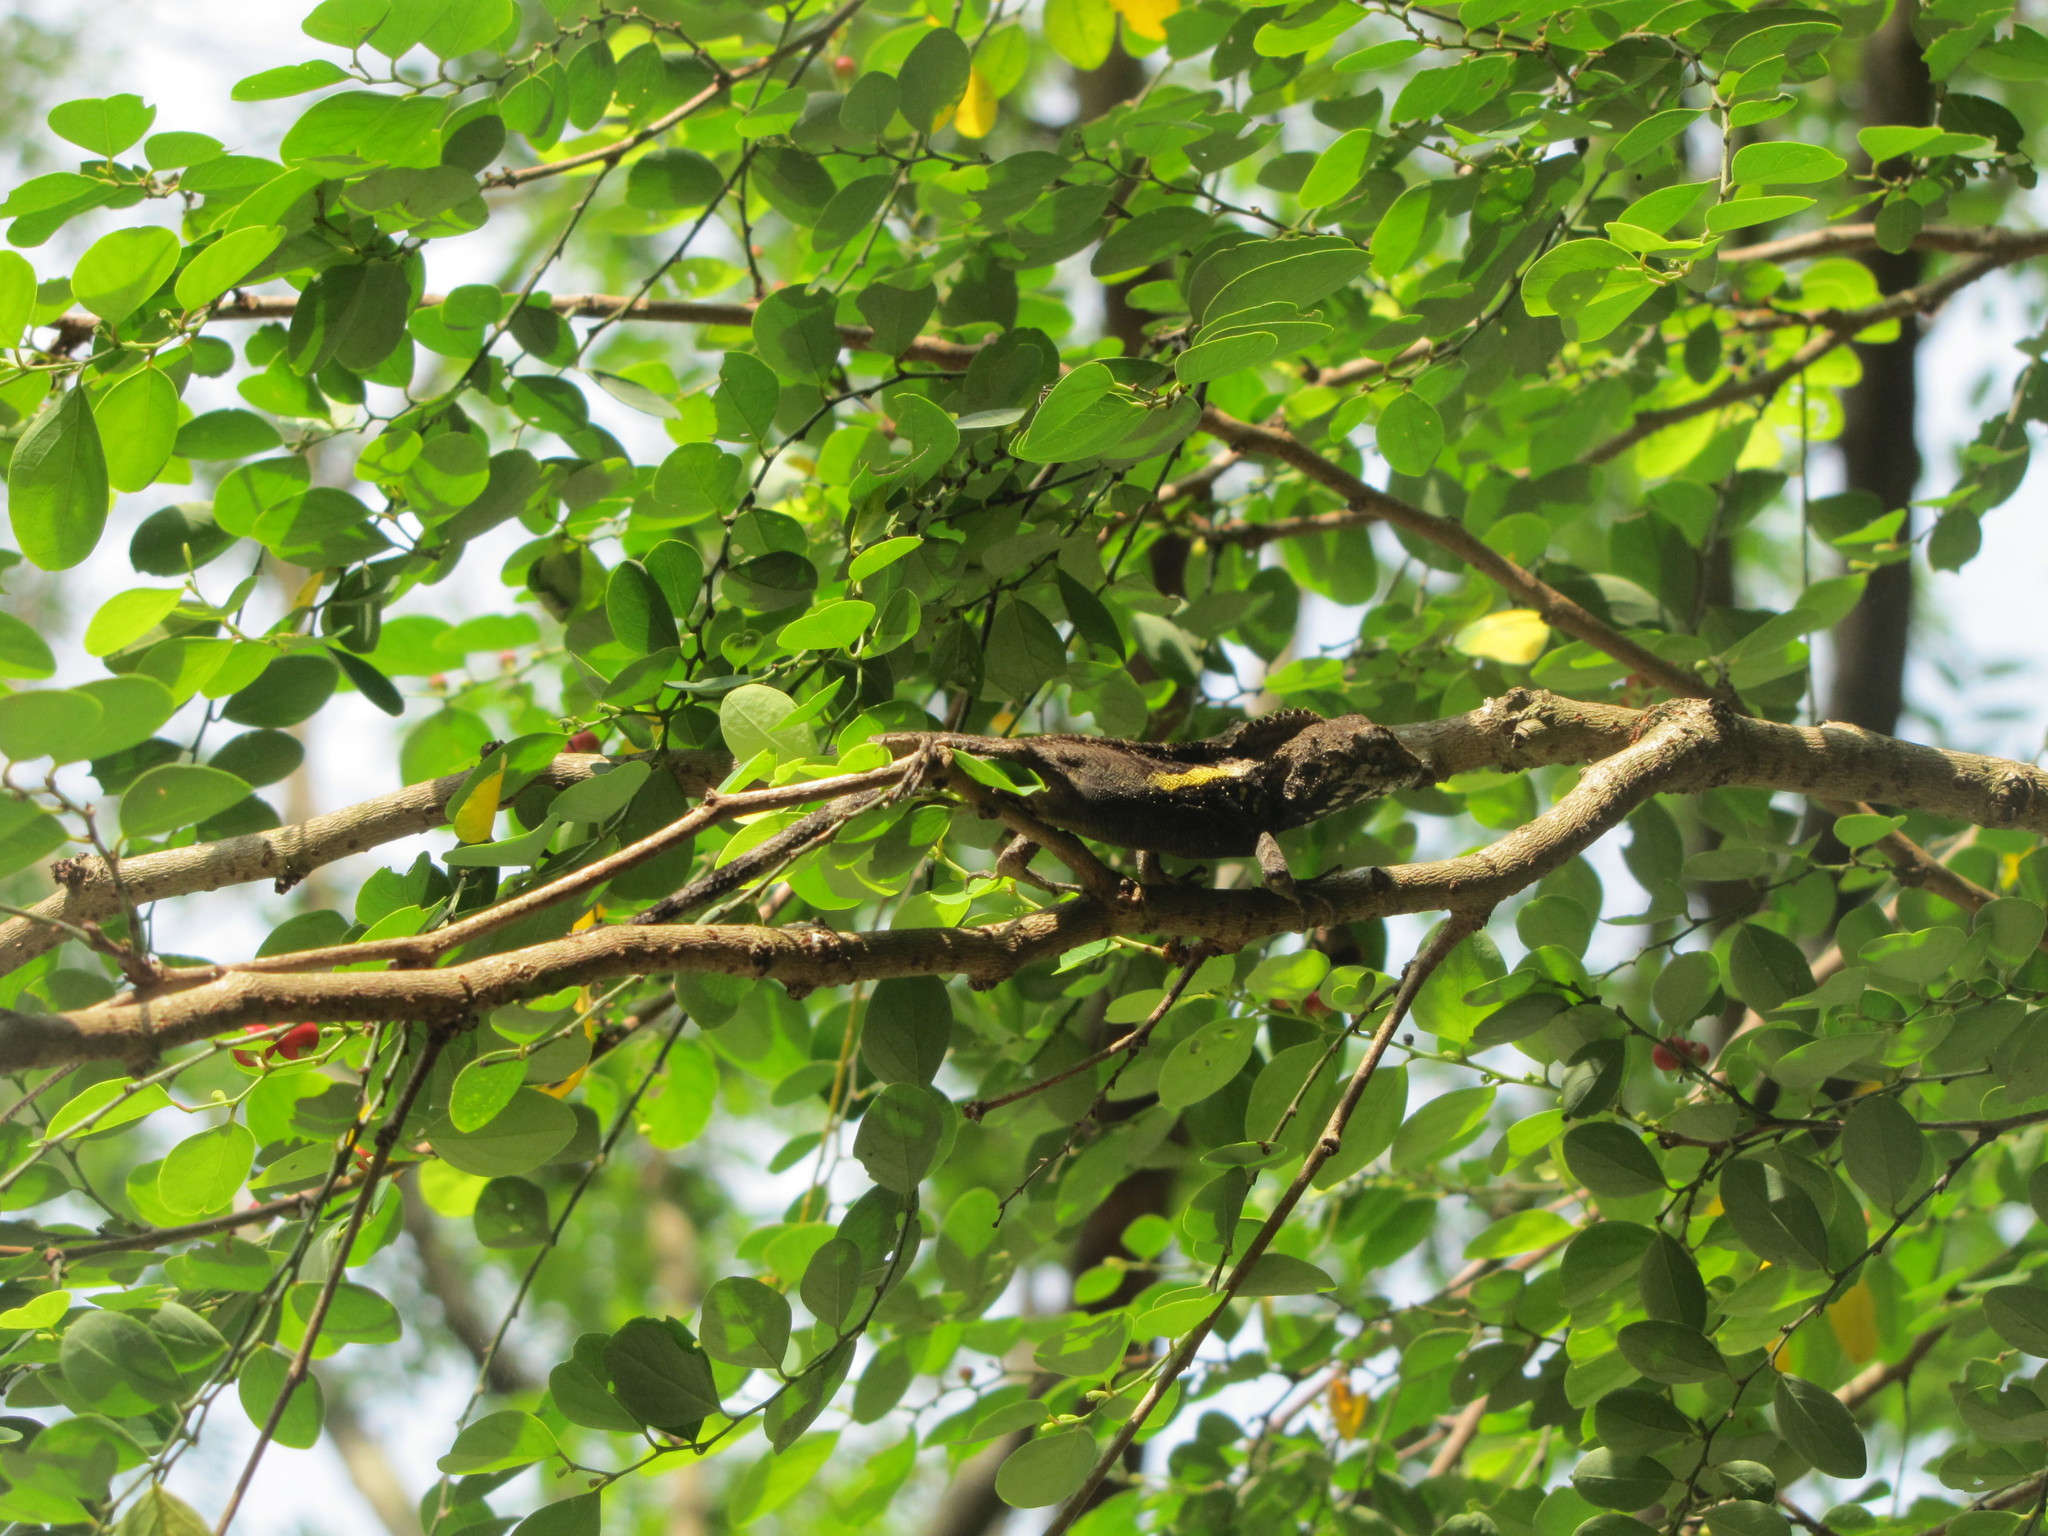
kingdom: Animalia
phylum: Chordata
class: Squamata
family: Agamidae
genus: Diploderma
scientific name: Diploderma swinhonis
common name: Taiwan japalure
